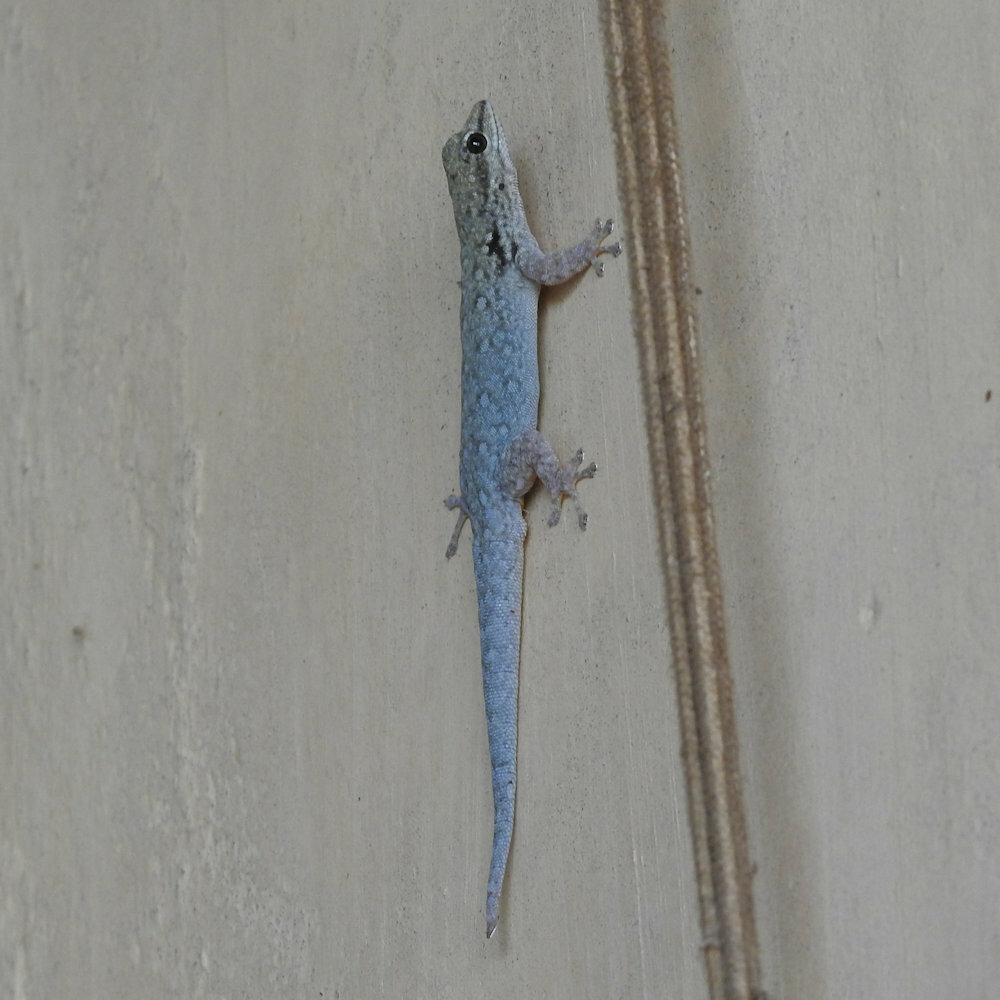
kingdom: Animalia
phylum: Chordata
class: Squamata
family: Gekkonidae
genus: Lygodactylus
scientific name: Lygodactylus chobiensis
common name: Okavango dwarf gecko
